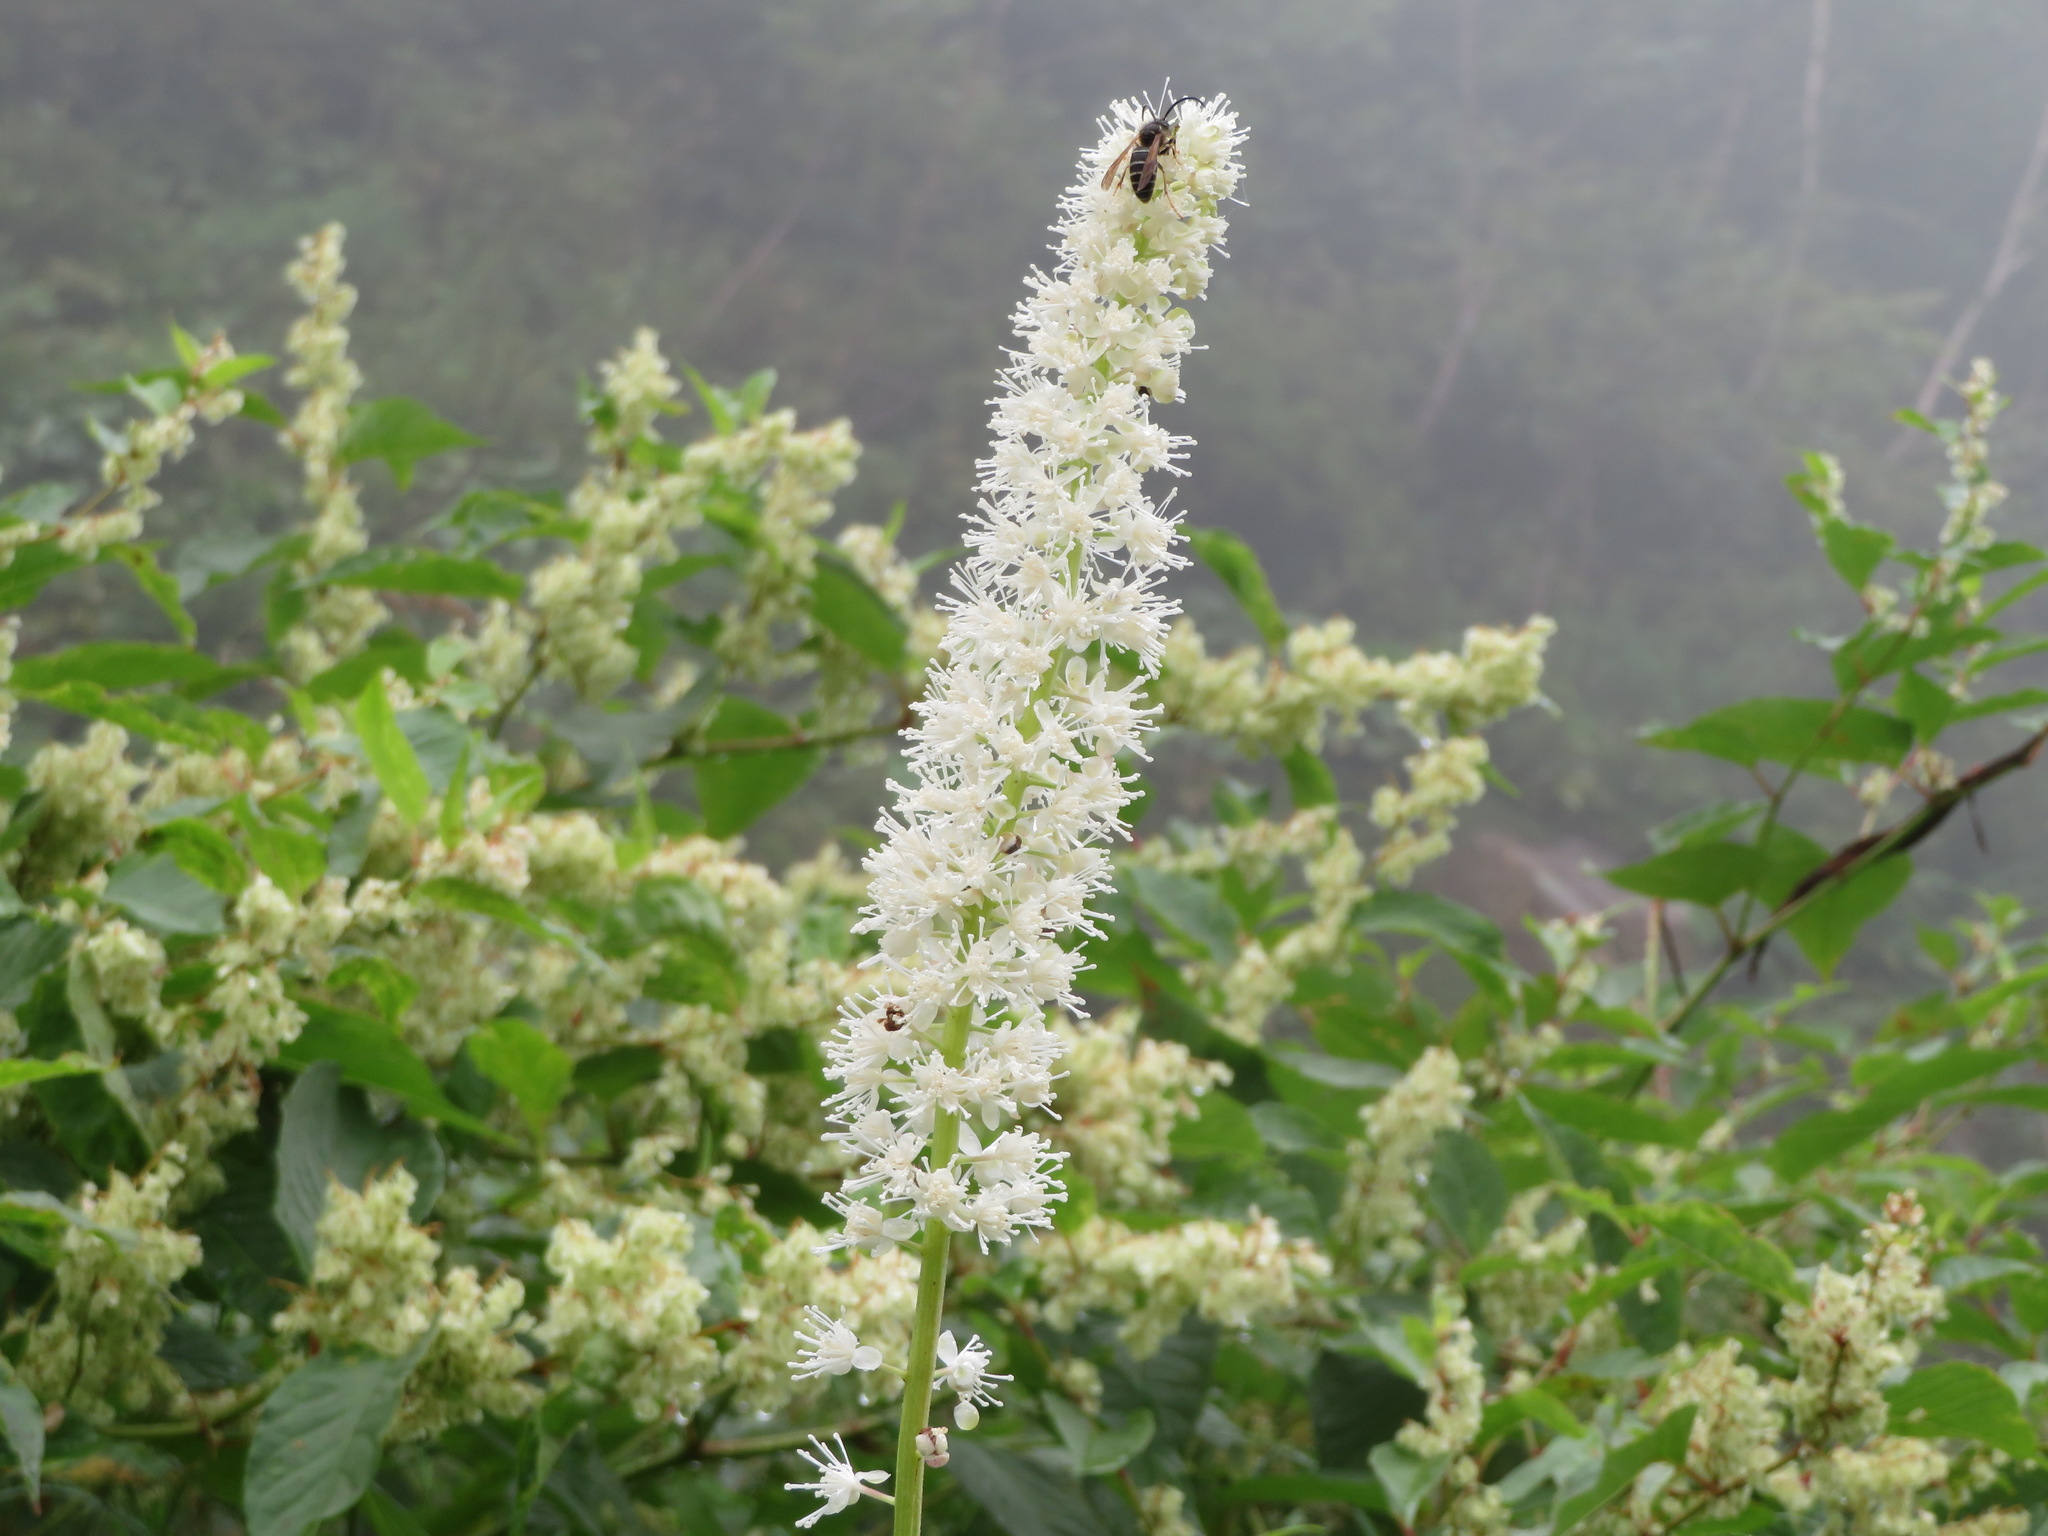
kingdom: Plantae
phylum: Tracheophyta
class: Magnoliopsida
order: Ranunculales
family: Ranunculaceae
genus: Actaea
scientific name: Actaea simplex
